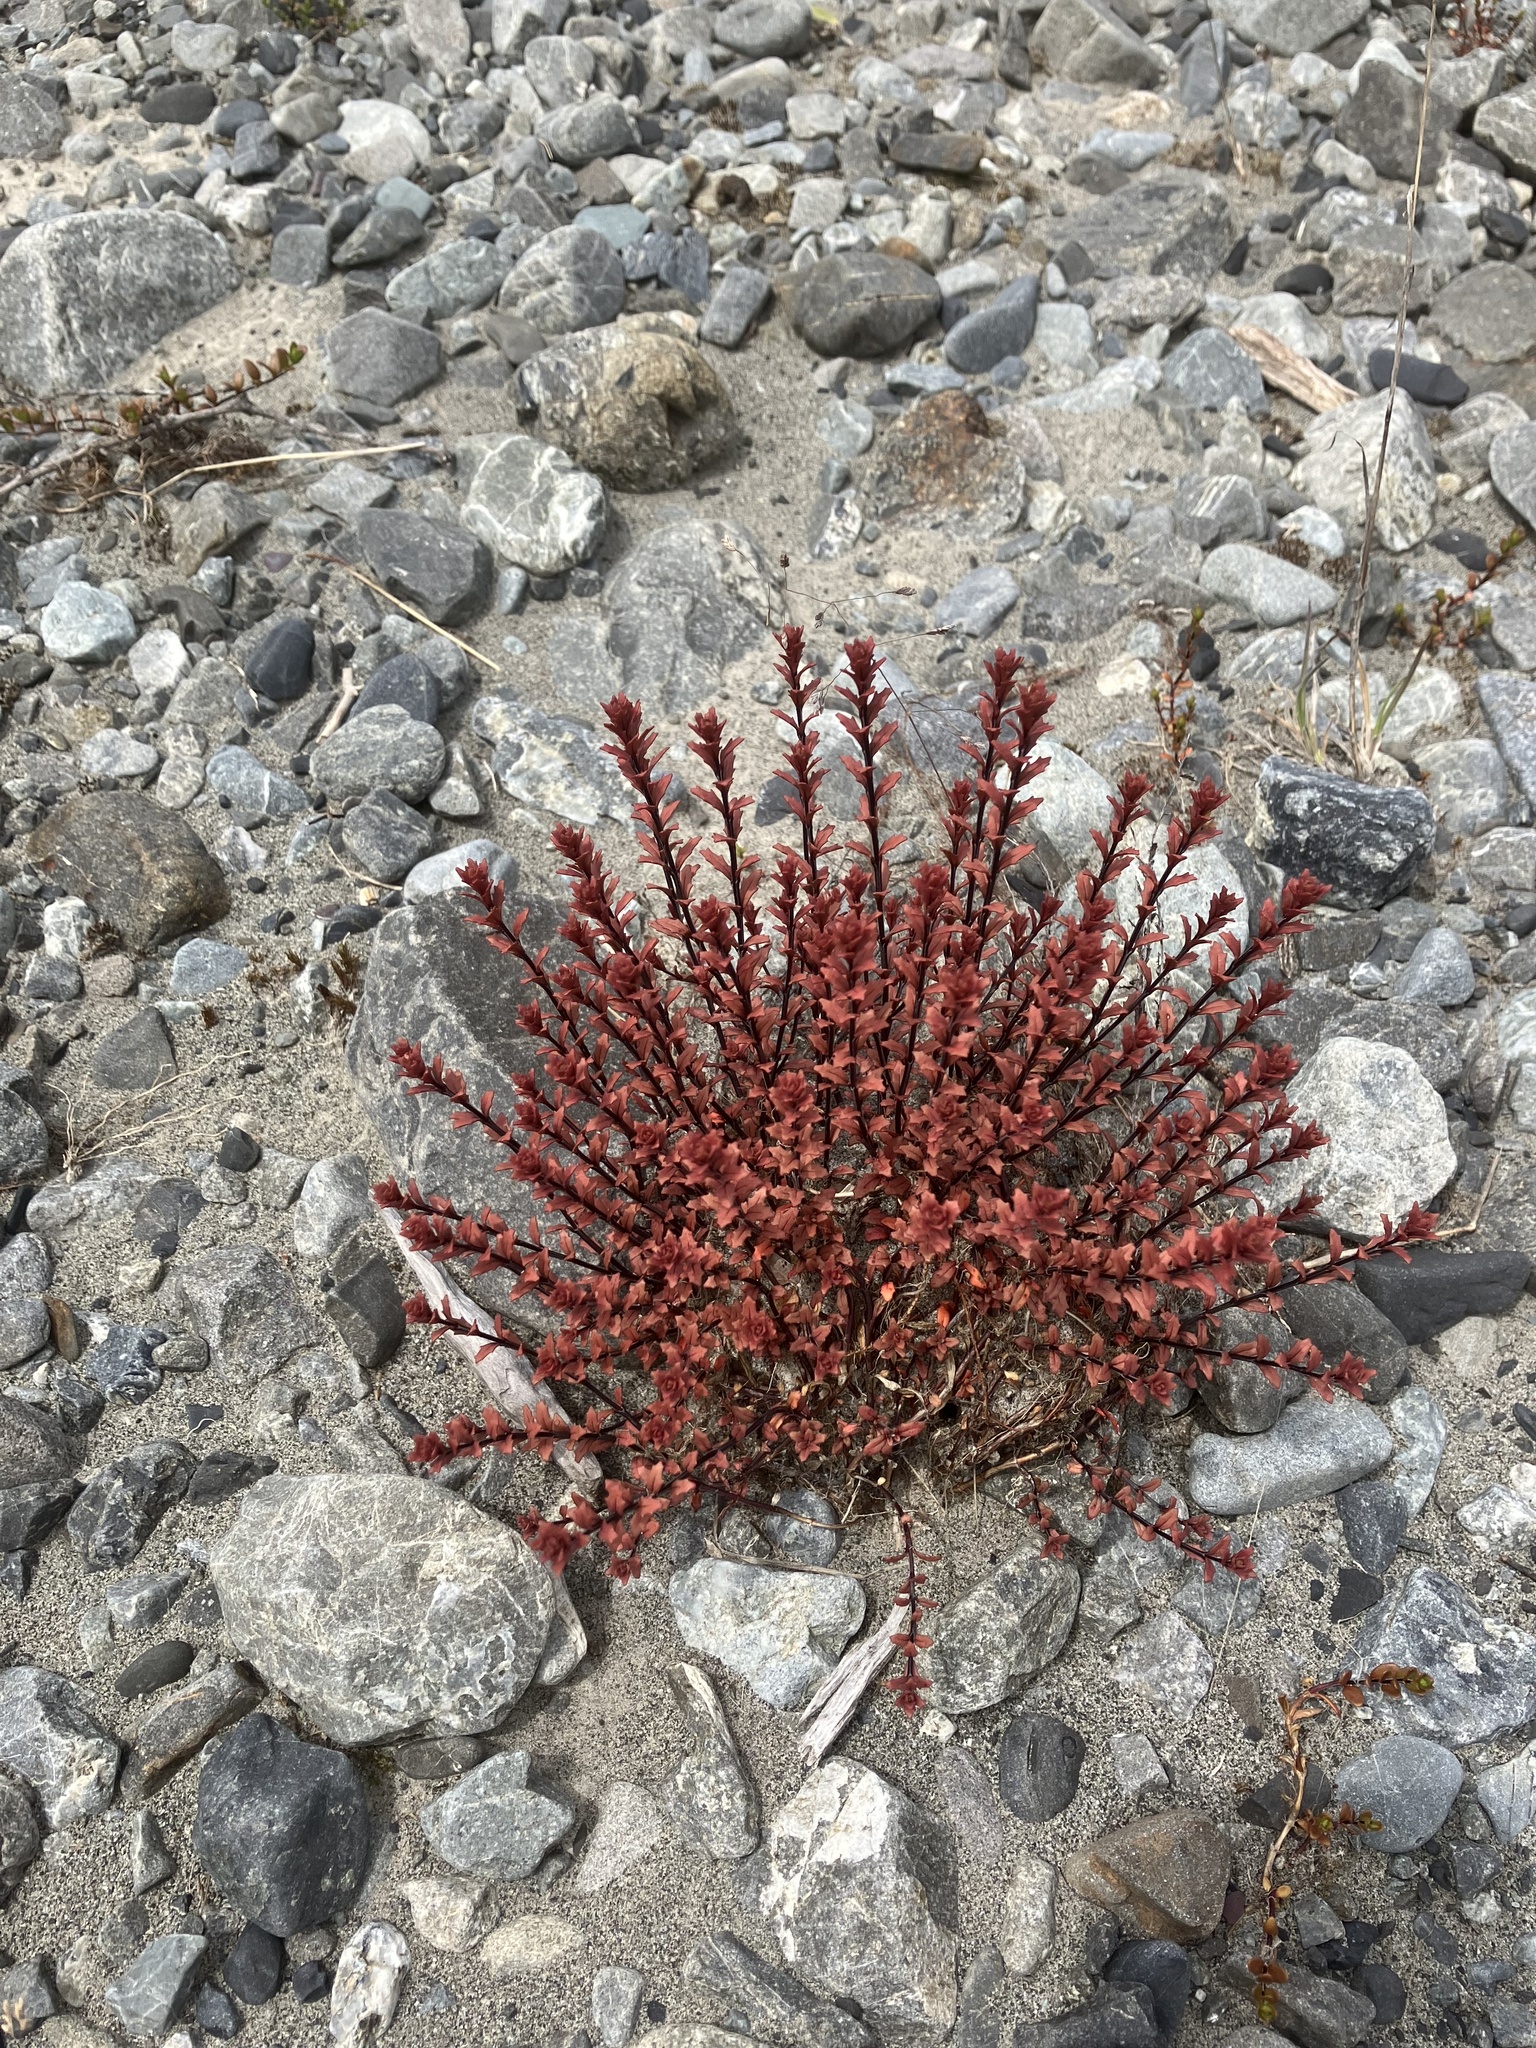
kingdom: Plantae
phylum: Tracheophyta
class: Magnoliopsida
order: Myrtales
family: Onagraceae
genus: Epilobium
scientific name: Epilobium melanocaulon
